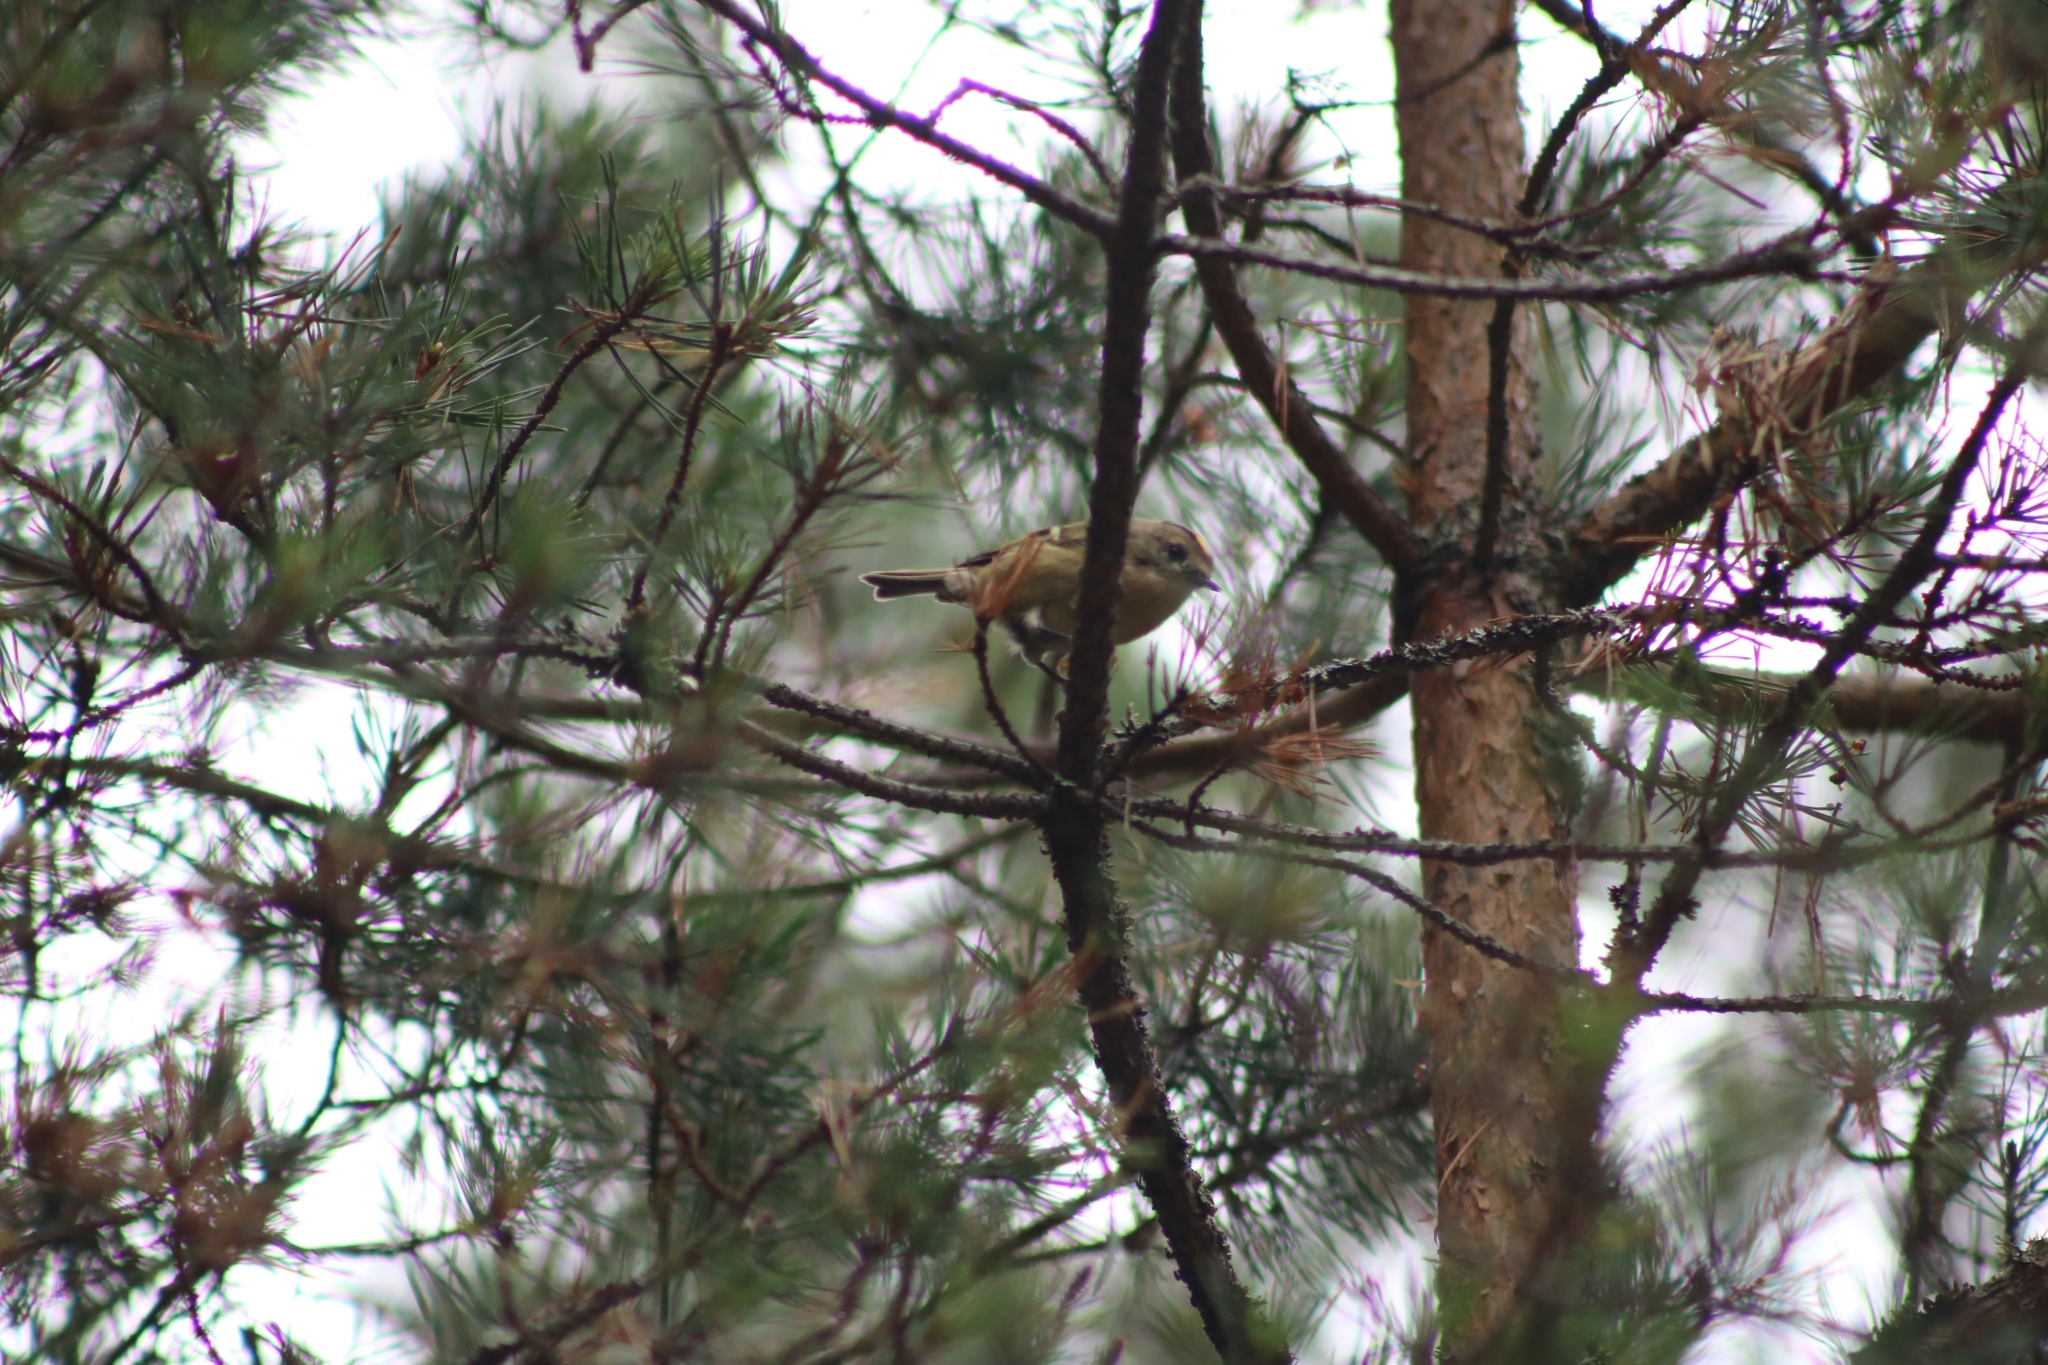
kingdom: Animalia
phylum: Chordata
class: Aves
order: Passeriformes
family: Regulidae
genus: Regulus
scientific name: Regulus regulus
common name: Goldcrest
